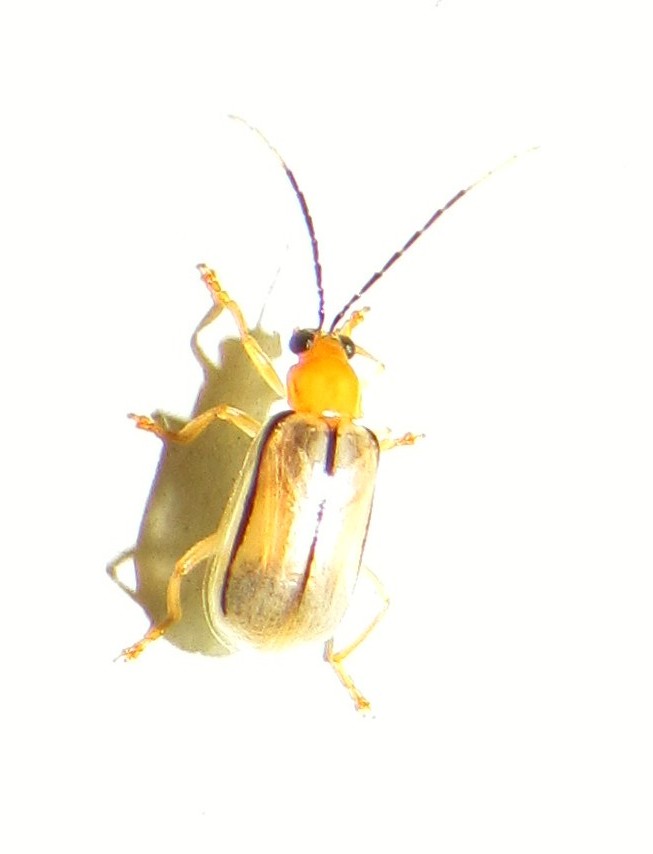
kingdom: Animalia
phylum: Arthropoda
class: Insecta
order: Coleoptera
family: Chrysomelidae
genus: Diabrotica
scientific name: Diabrotica
